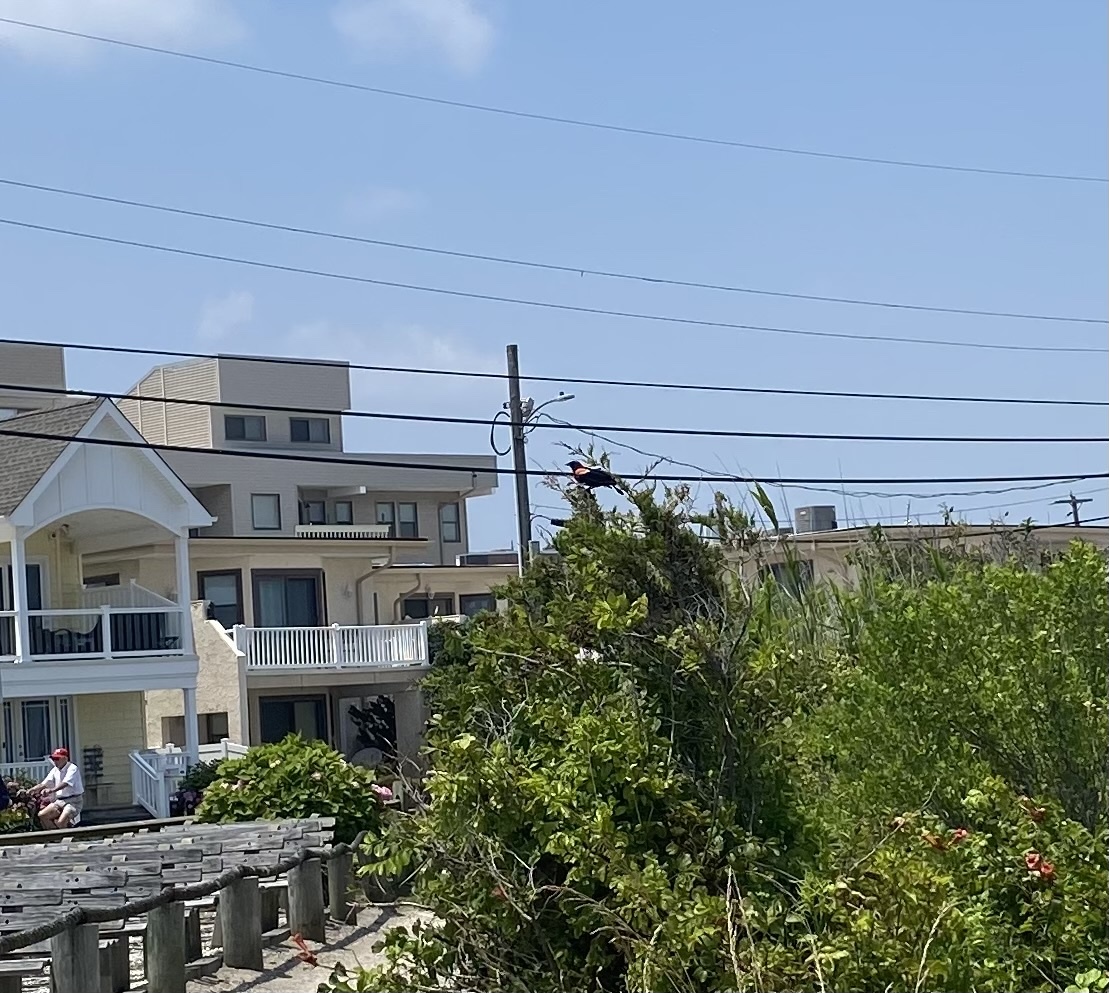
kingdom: Animalia
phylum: Chordata
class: Aves
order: Passeriformes
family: Icteridae
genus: Agelaius
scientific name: Agelaius phoeniceus
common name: Red-winged blackbird
